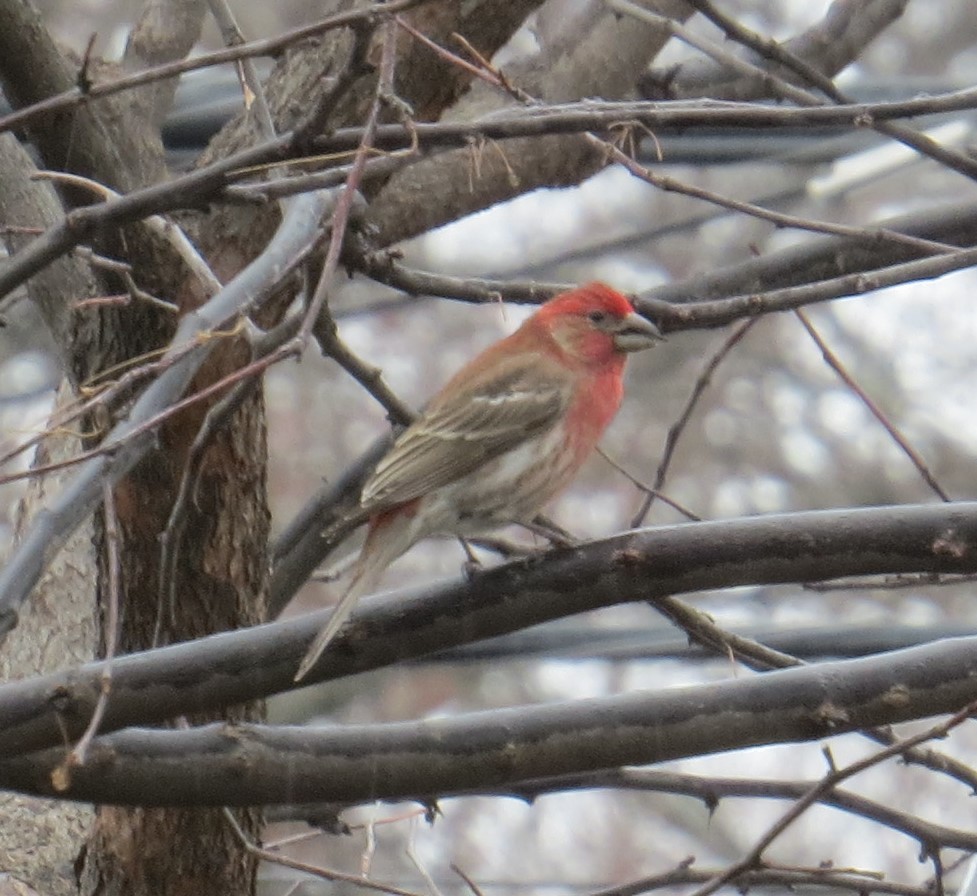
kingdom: Animalia
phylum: Chordata
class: Aves
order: Passeriformes
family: Fringillidae
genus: Haemorhous
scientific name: Haemorhous mexicanus
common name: House finch
